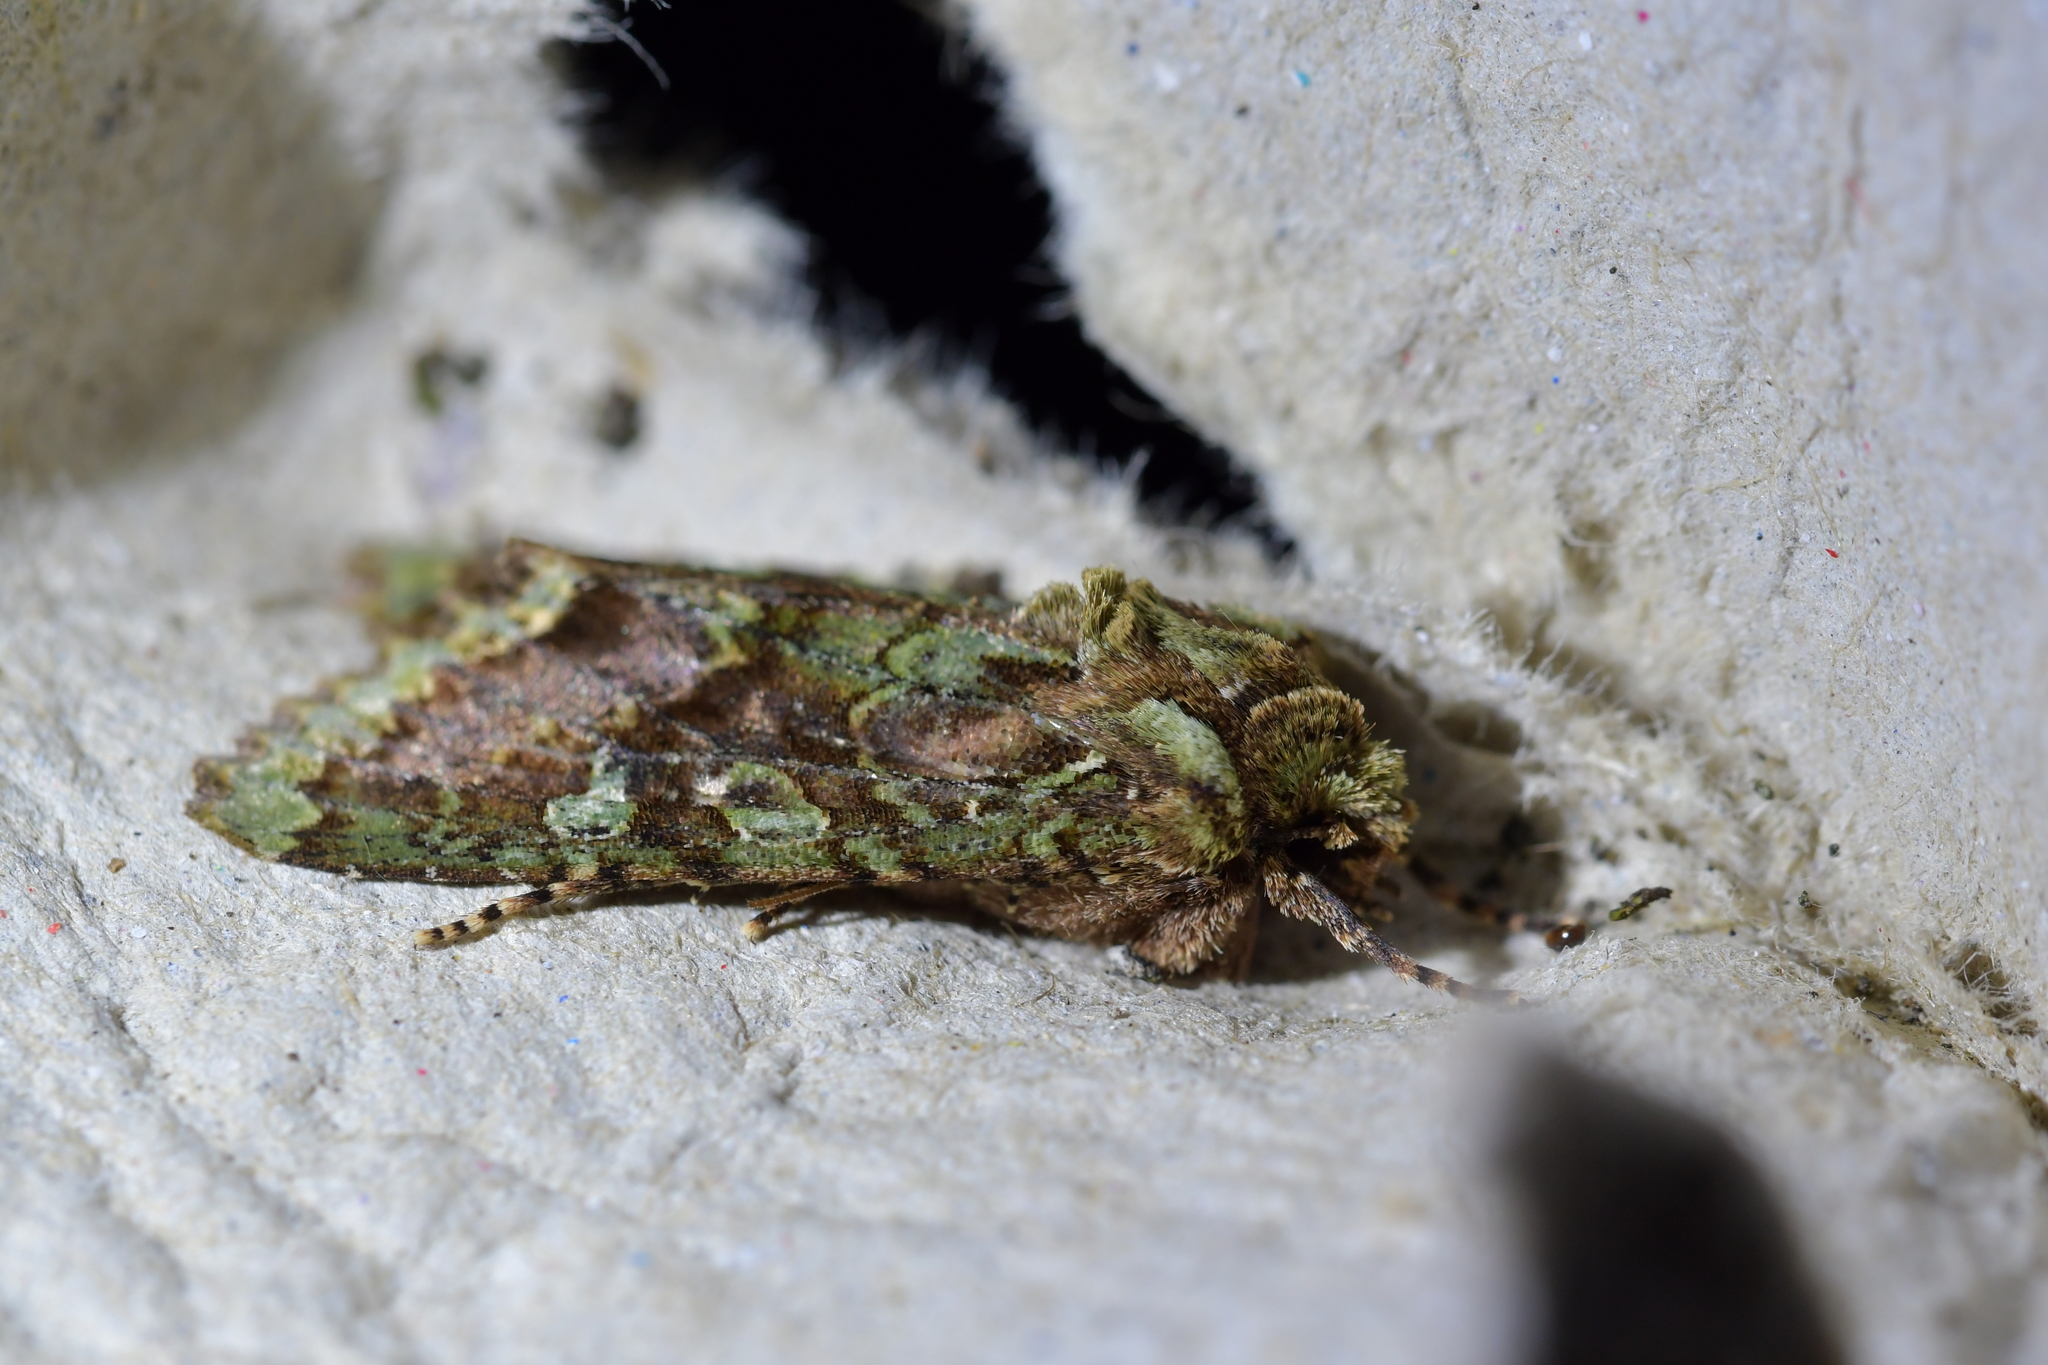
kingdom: Animalia
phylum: Arthropoda
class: Insecta
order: Lepidoptera
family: Noctuidae
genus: Meterana
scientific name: Meterana
